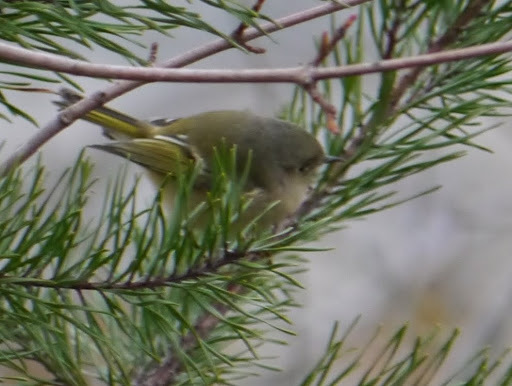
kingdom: Animalia
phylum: Chordata
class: Aves
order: Passeriformes
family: Regulidae
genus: Regulus
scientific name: Regulus calendula
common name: Ruby-crowned kinglet
